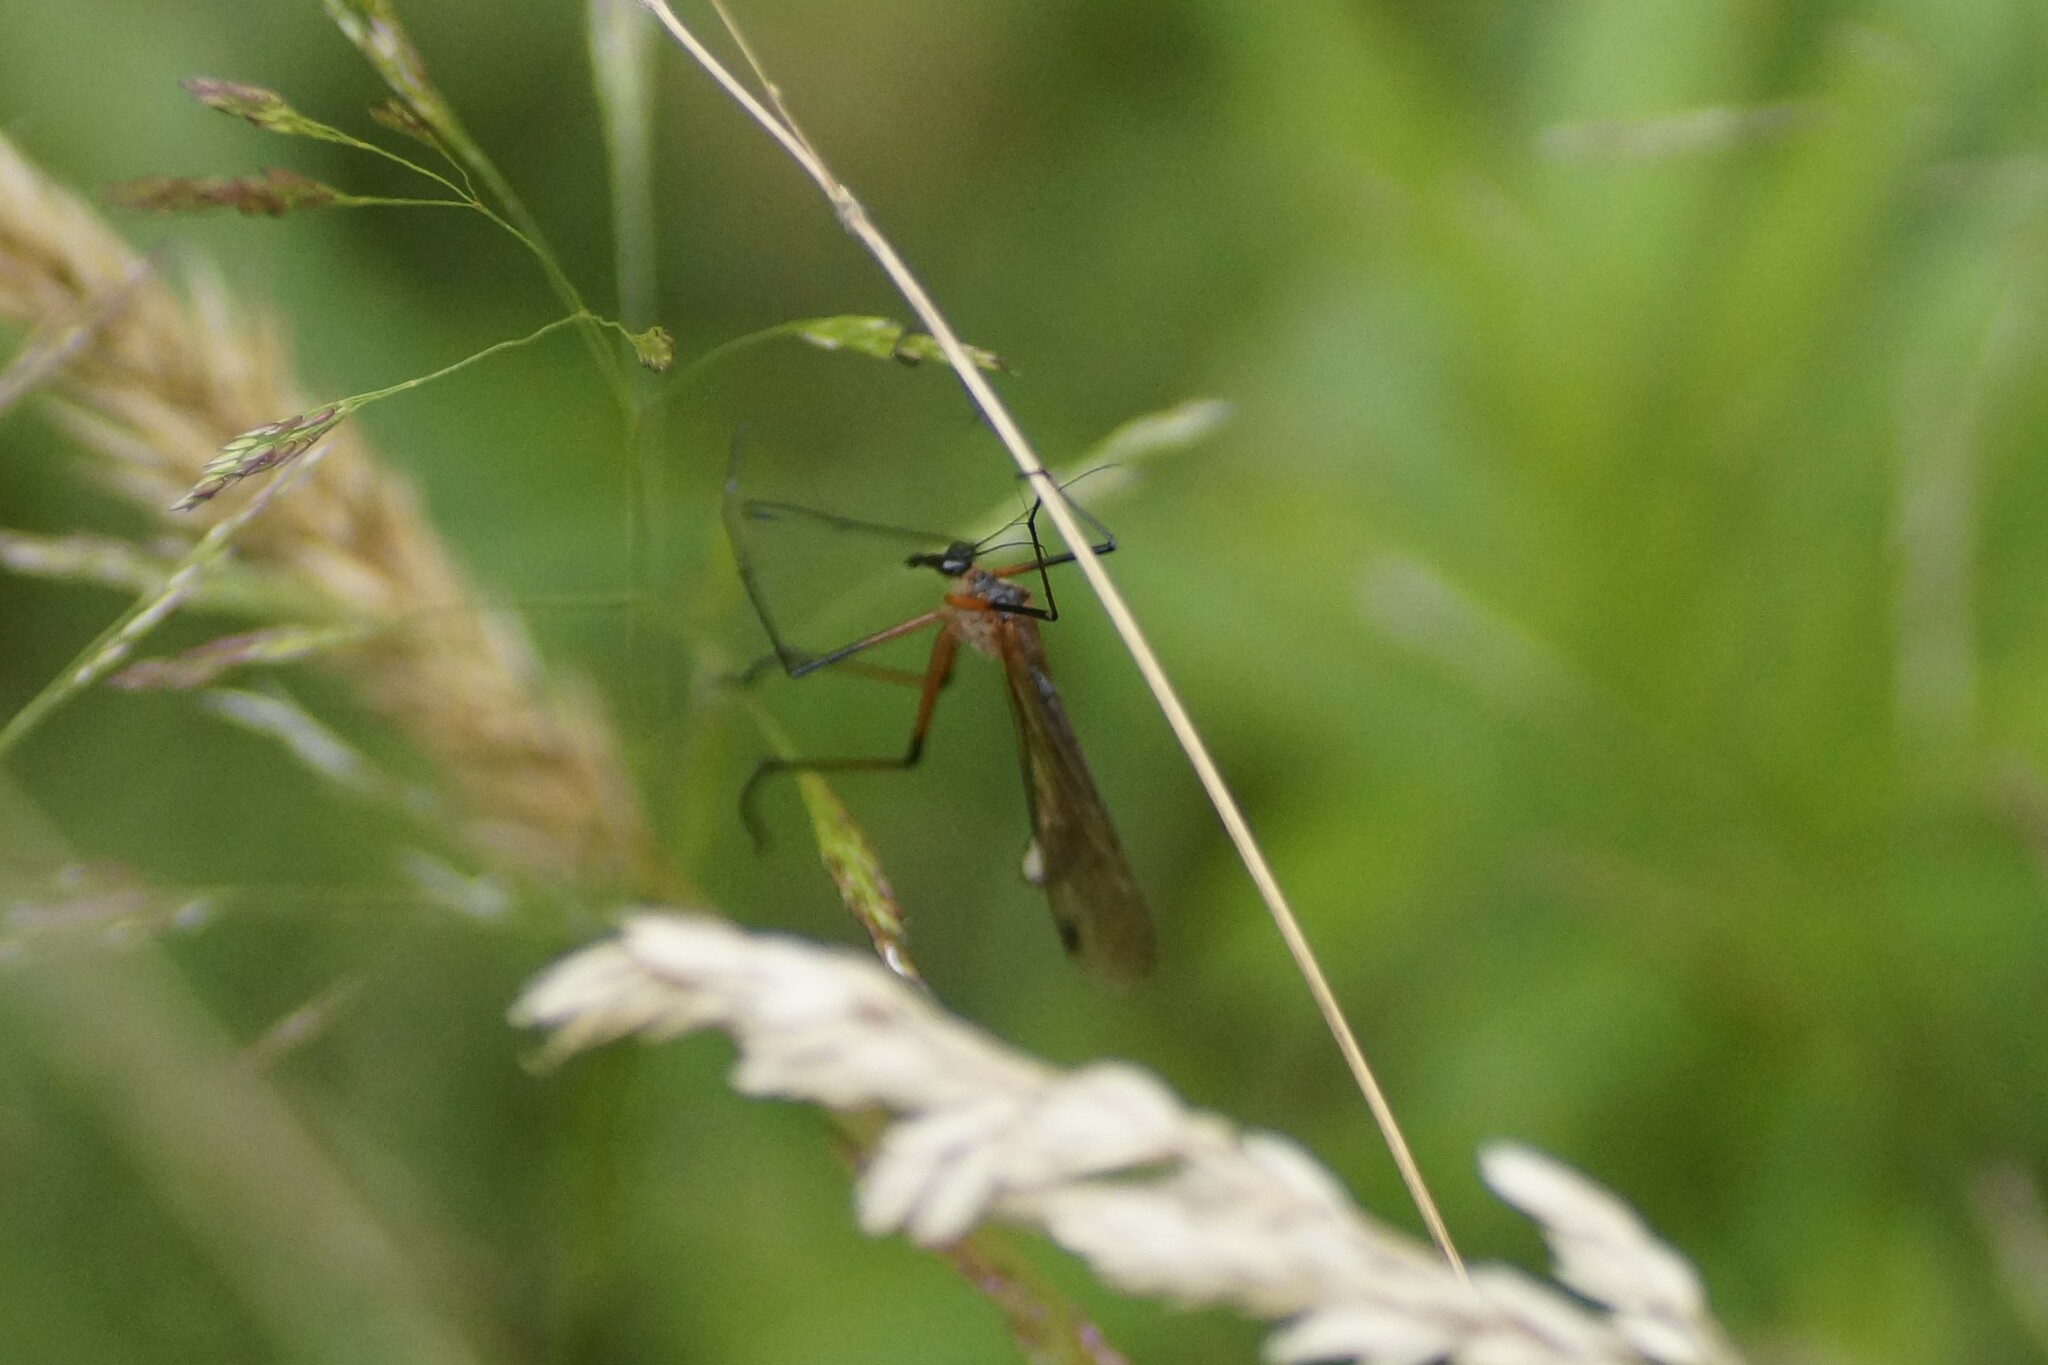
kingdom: Animalia
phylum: Arthropoda
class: Insecta
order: Mecoptera
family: Bittacidae
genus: Harpobittacus
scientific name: Harpobittacus nigriceps
